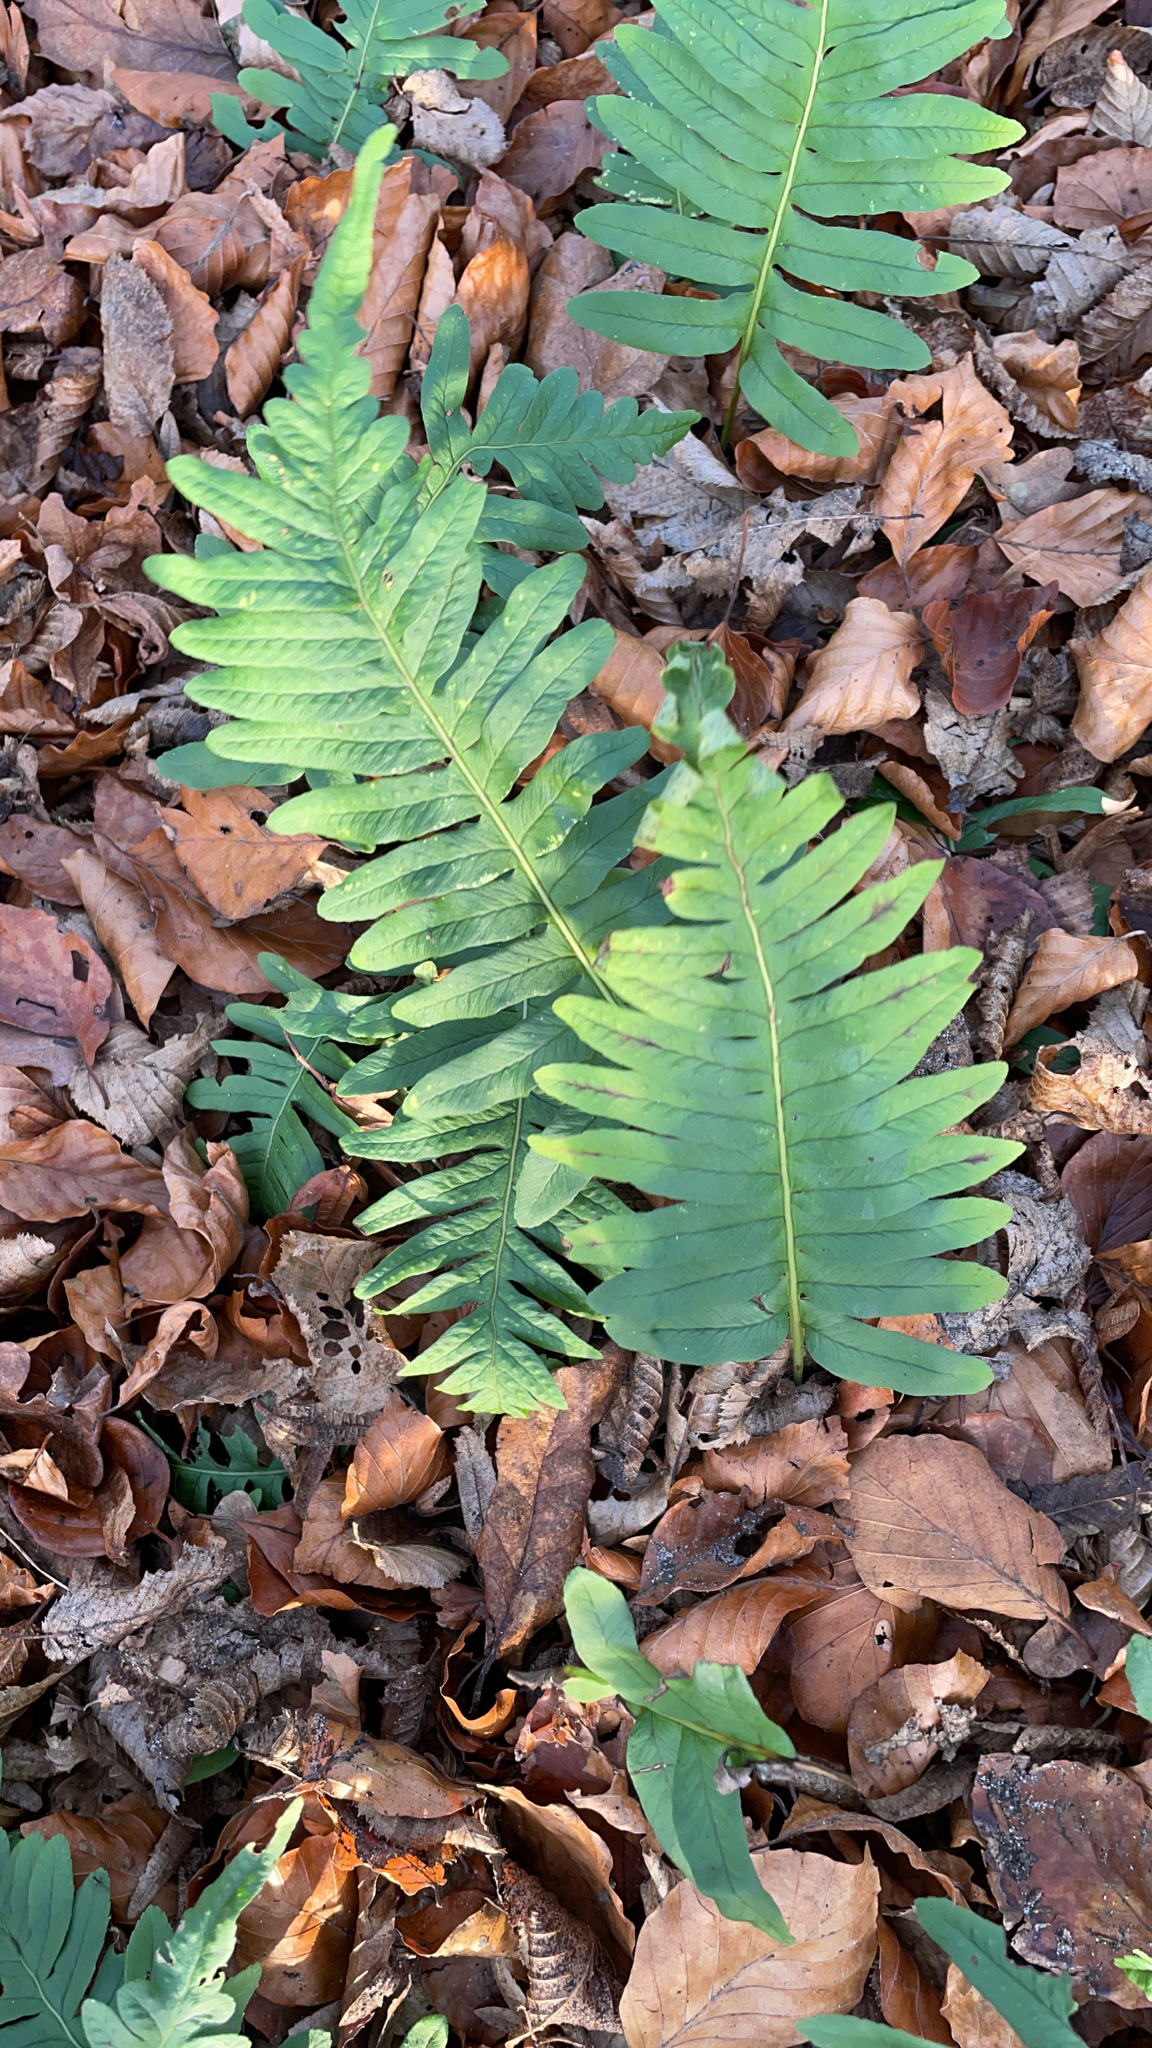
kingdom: Plantae
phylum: Tracheophyta
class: Polypodiopsida
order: Polypodiales
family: Polypodiaceae
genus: Polypodium
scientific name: Polypodium vulgare
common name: Common polypody
